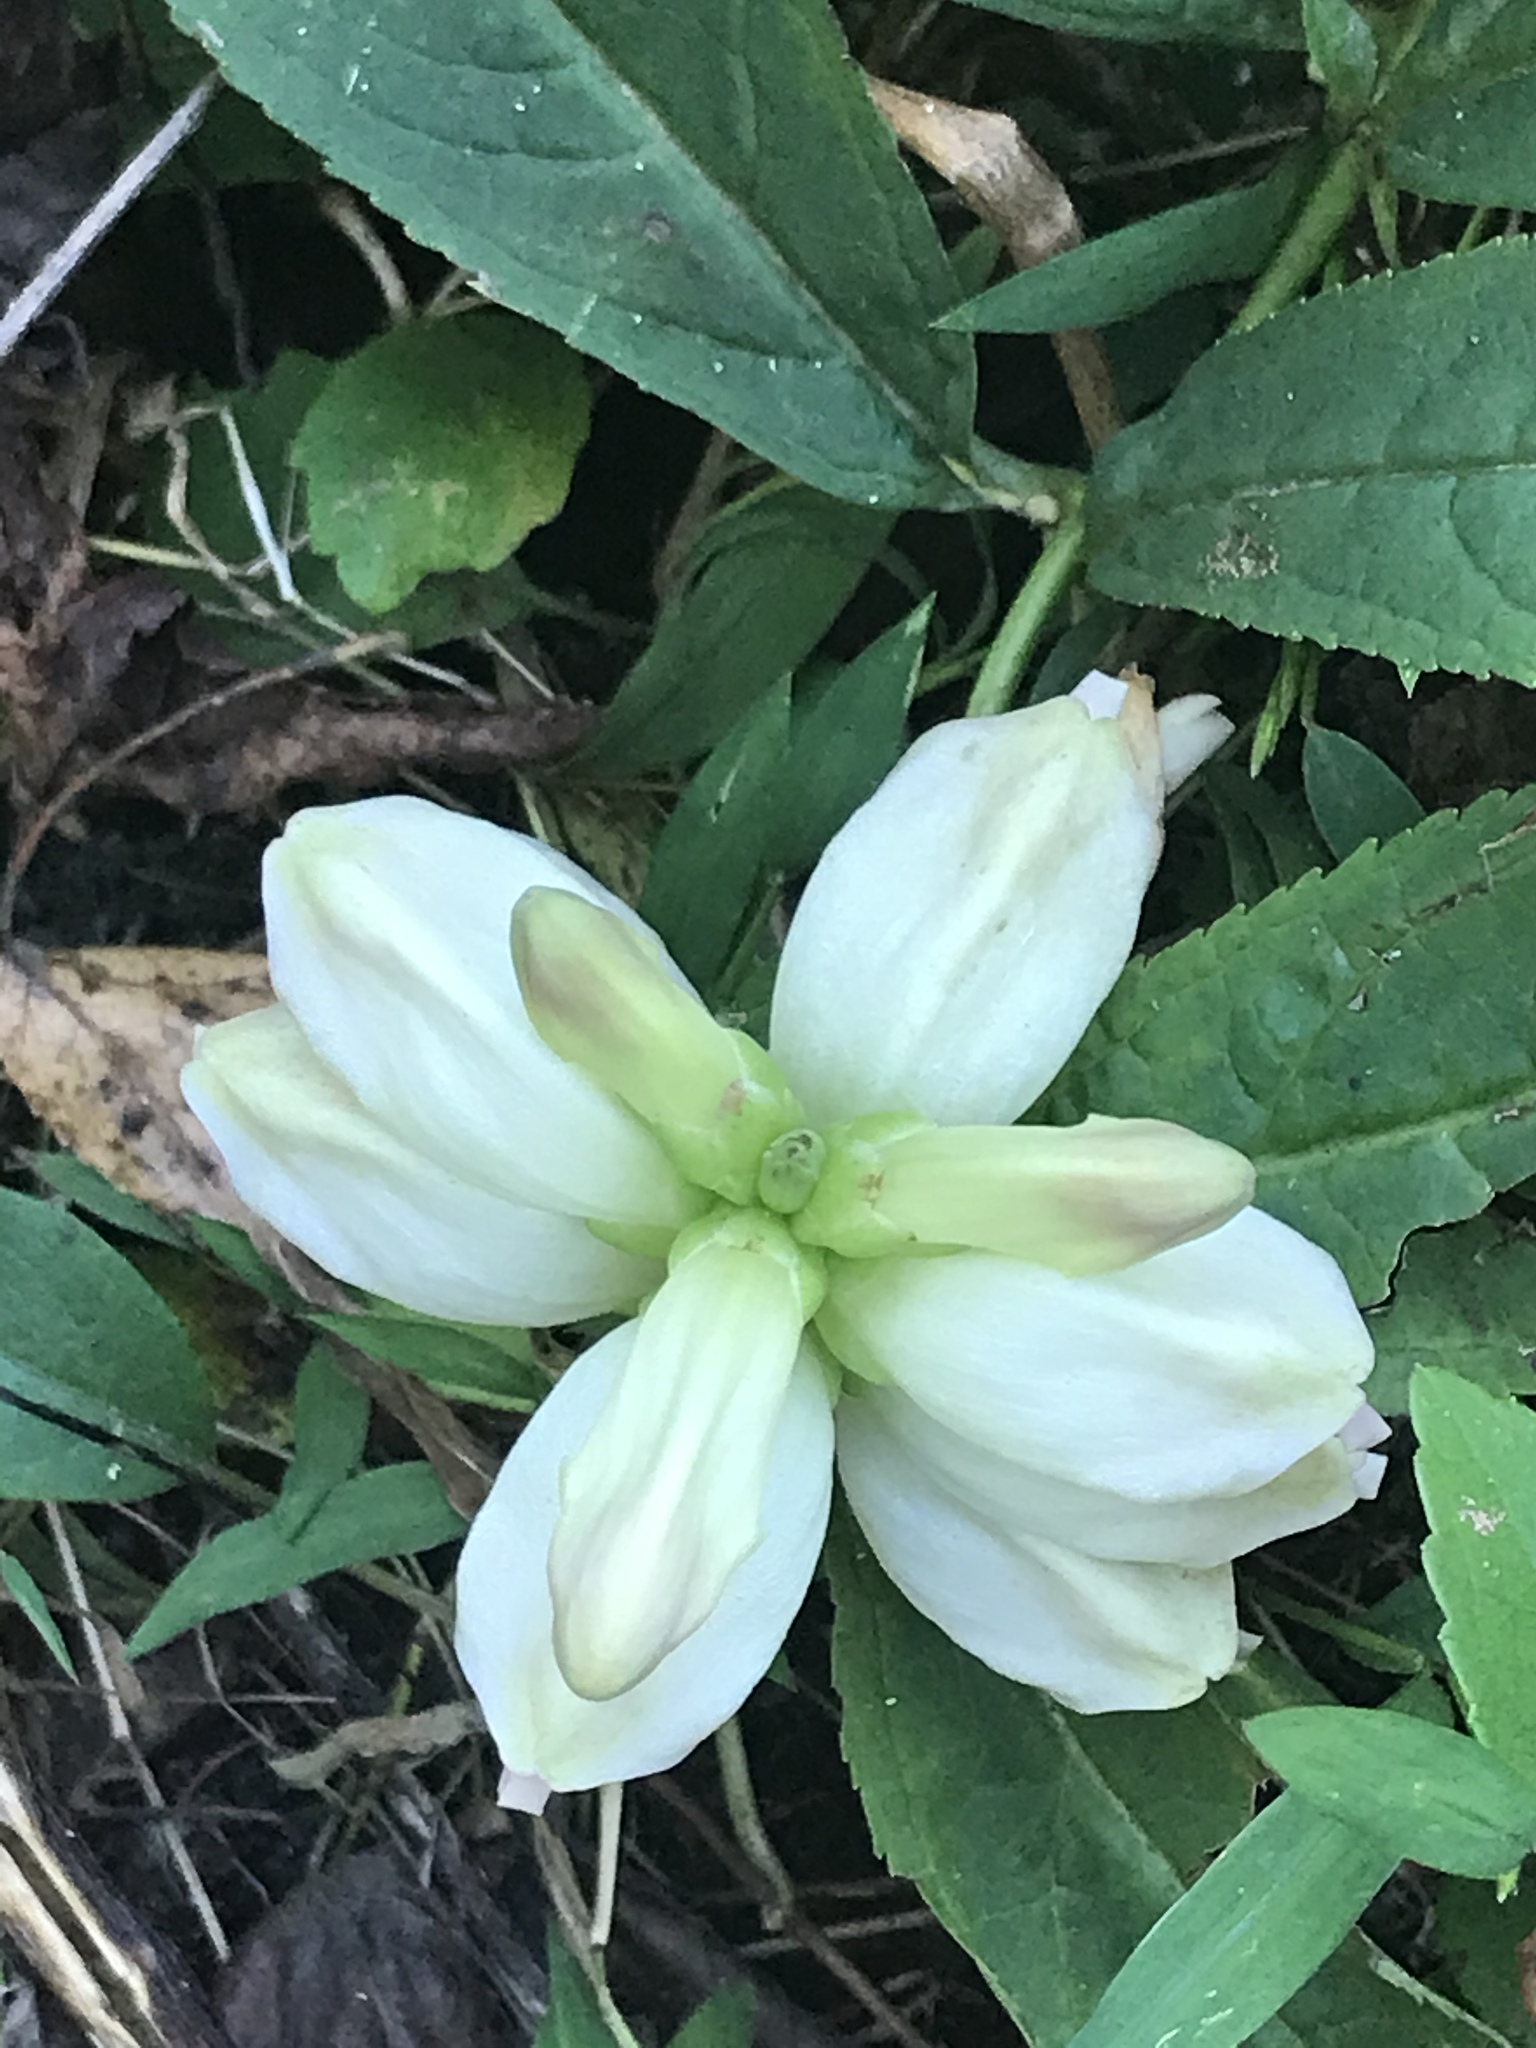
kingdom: Plantae
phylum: Tracheophyta
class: Magnoliopsida
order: Lamiales
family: Plantaginaceae
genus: Chelone
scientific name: Chelone glabra
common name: Snakehead
